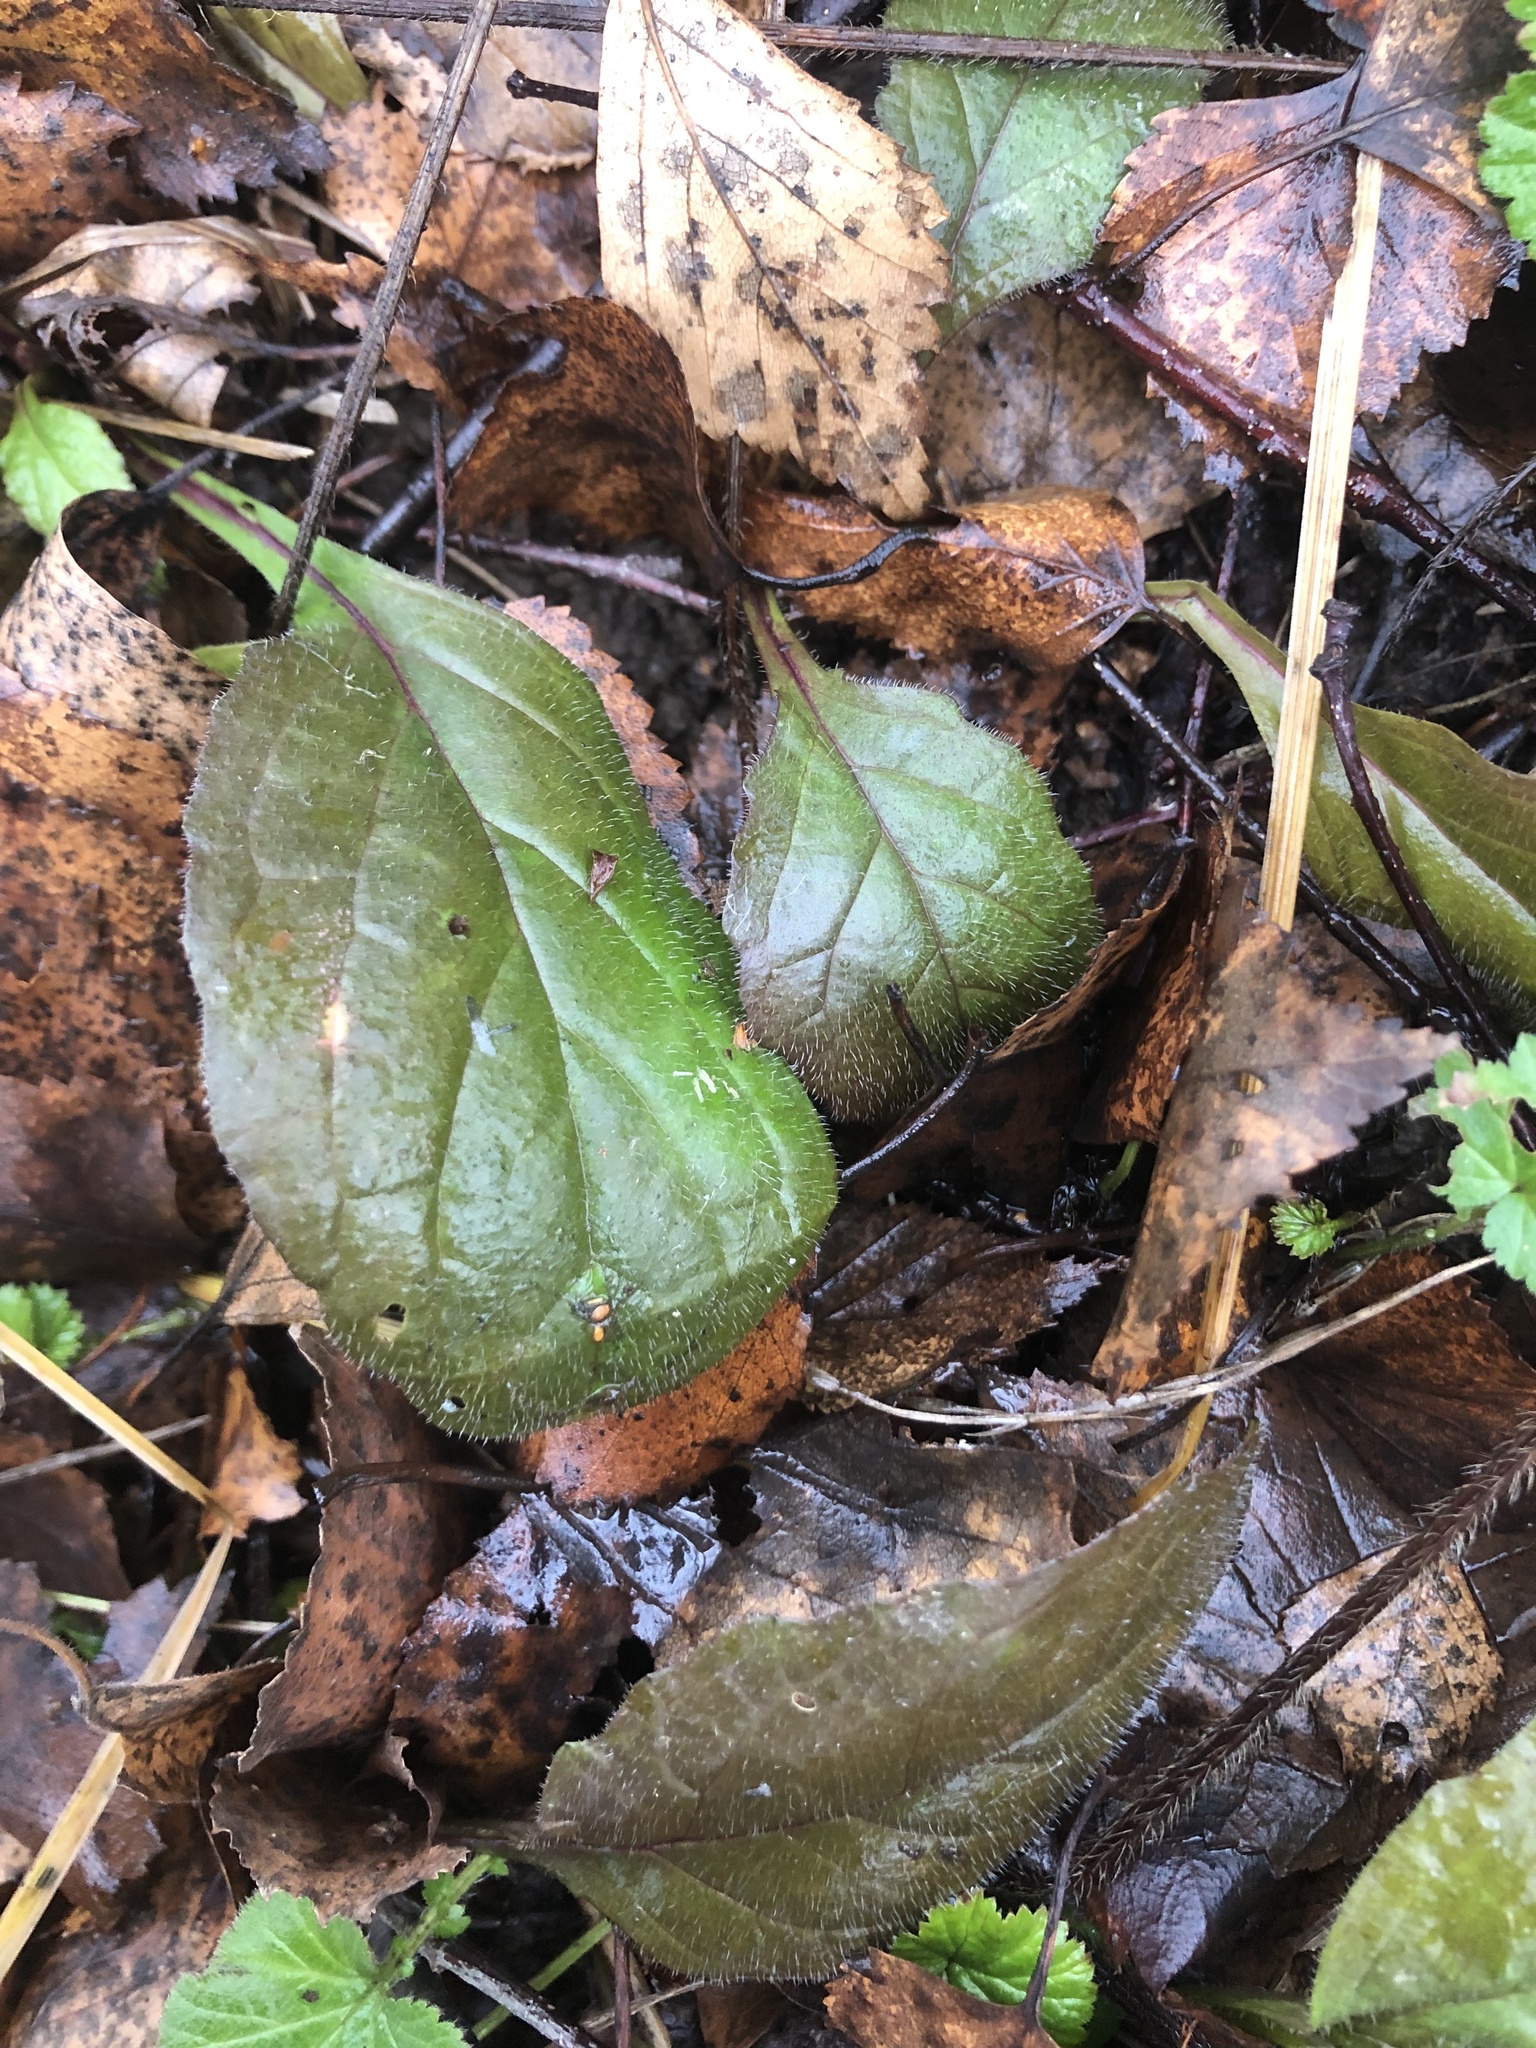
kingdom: Plantae
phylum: Tracheophyta
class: Magnoliopsida
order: Lamiales
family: Lamiaceae
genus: Ajuga
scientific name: Ajuga reptans
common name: Bugle
